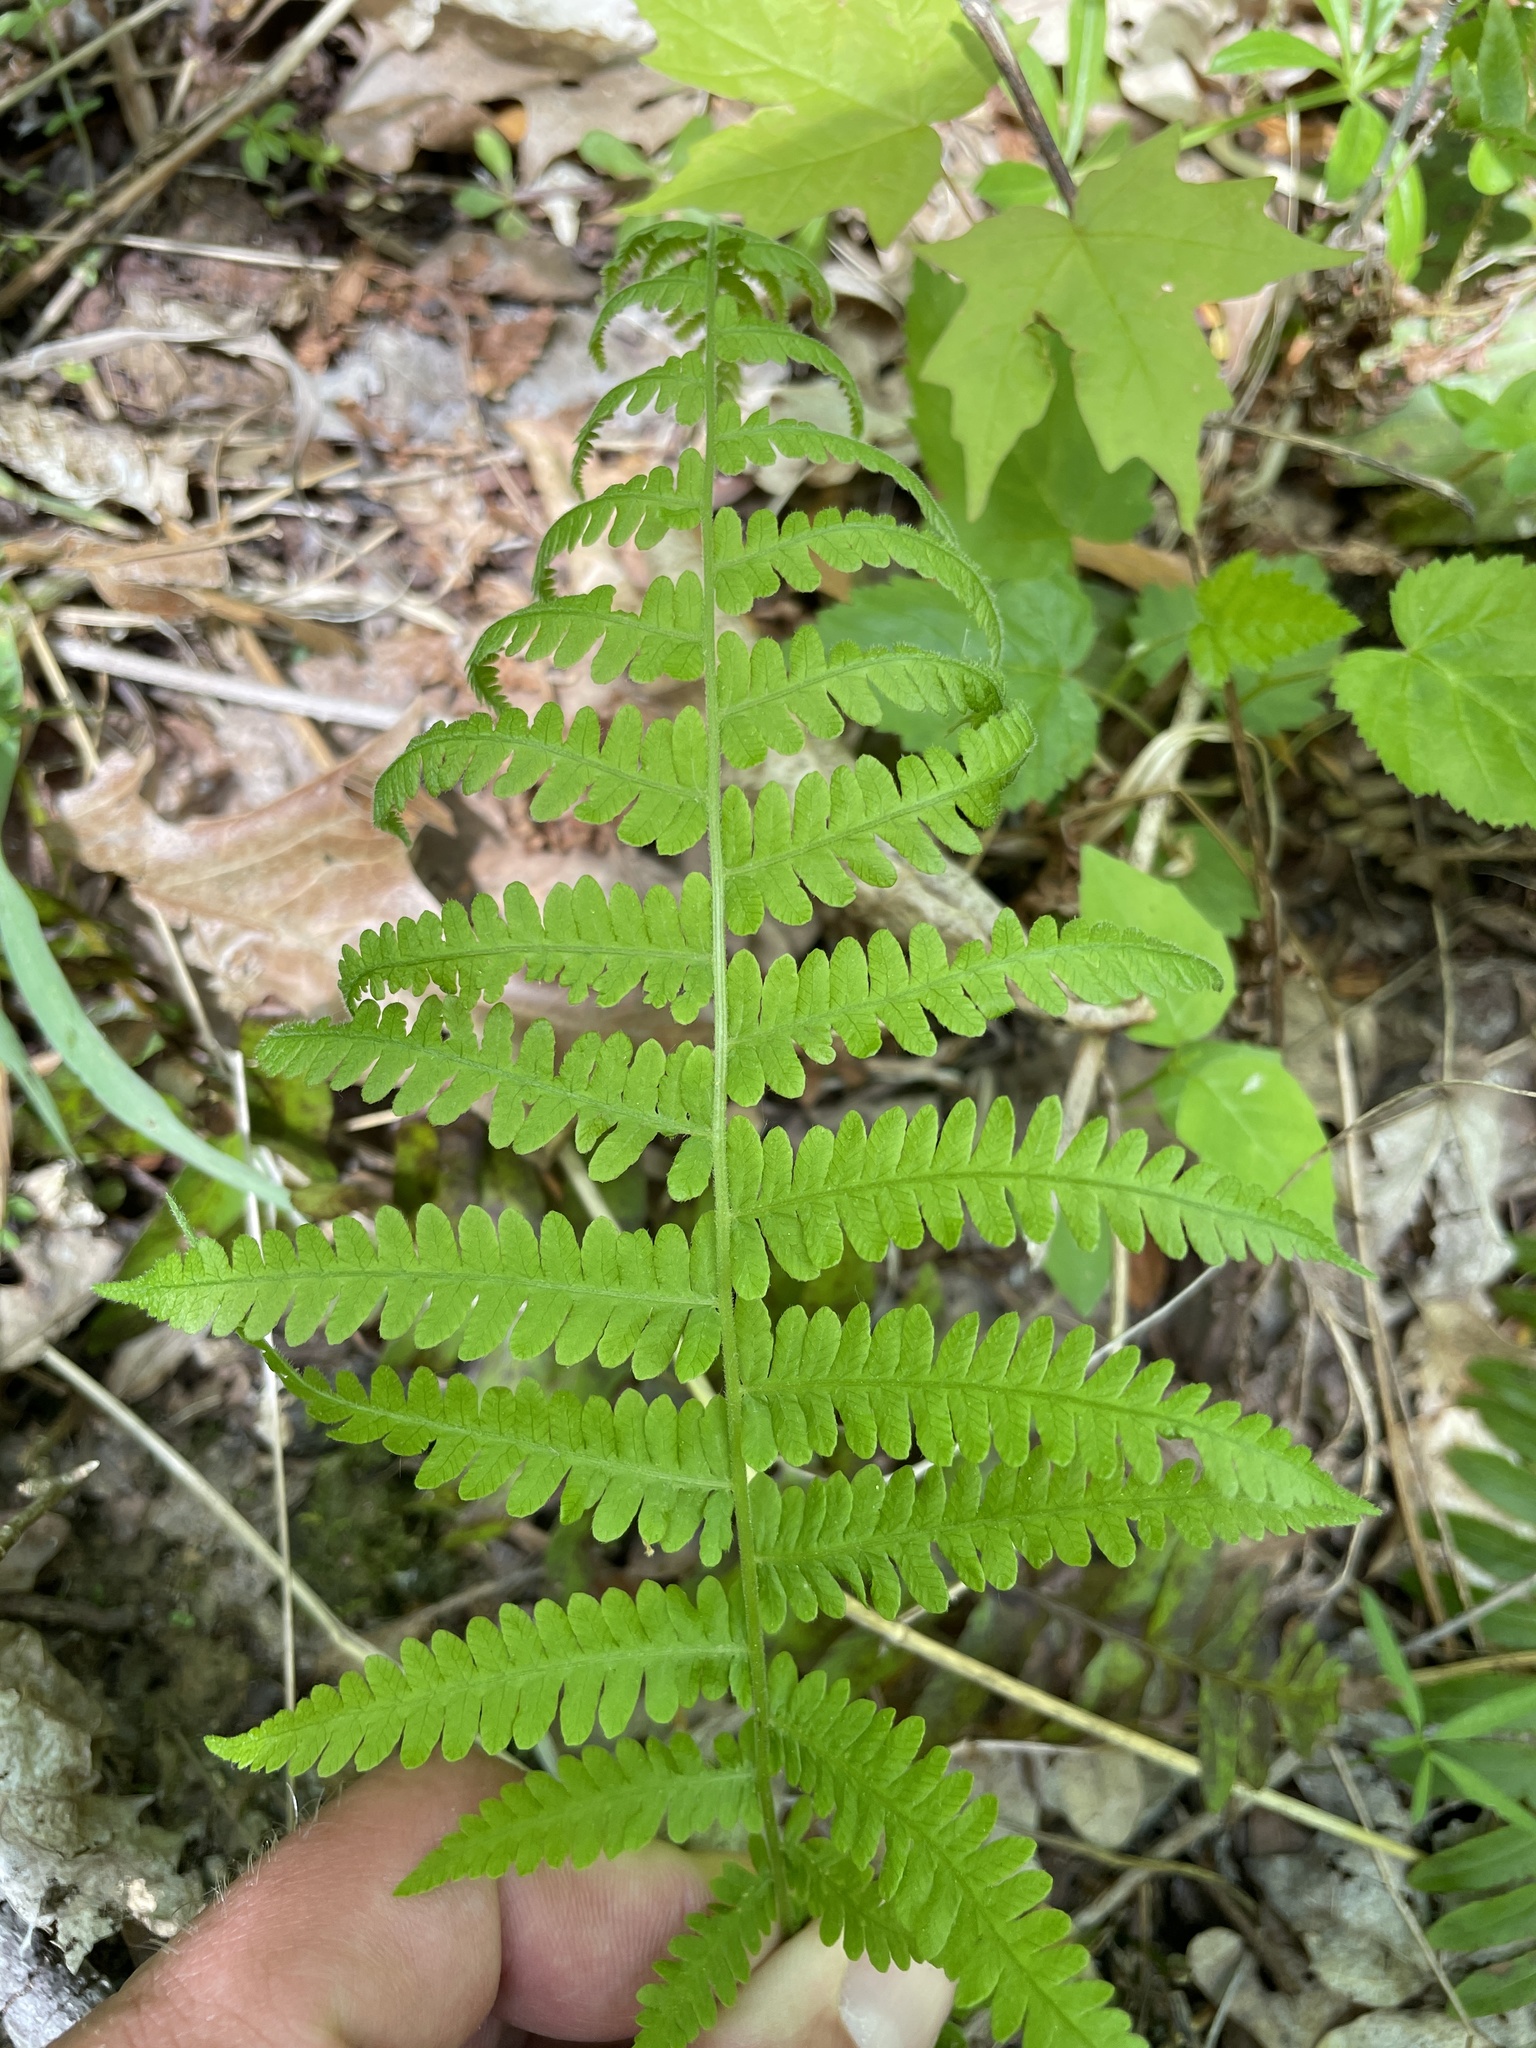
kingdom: Plantae
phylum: Tracheophyta
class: Polypodiopsida
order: Polypodiales
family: Thelypteridaceae
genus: Amauropelta
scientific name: Amauropelta noveboracensis
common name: New york fern
